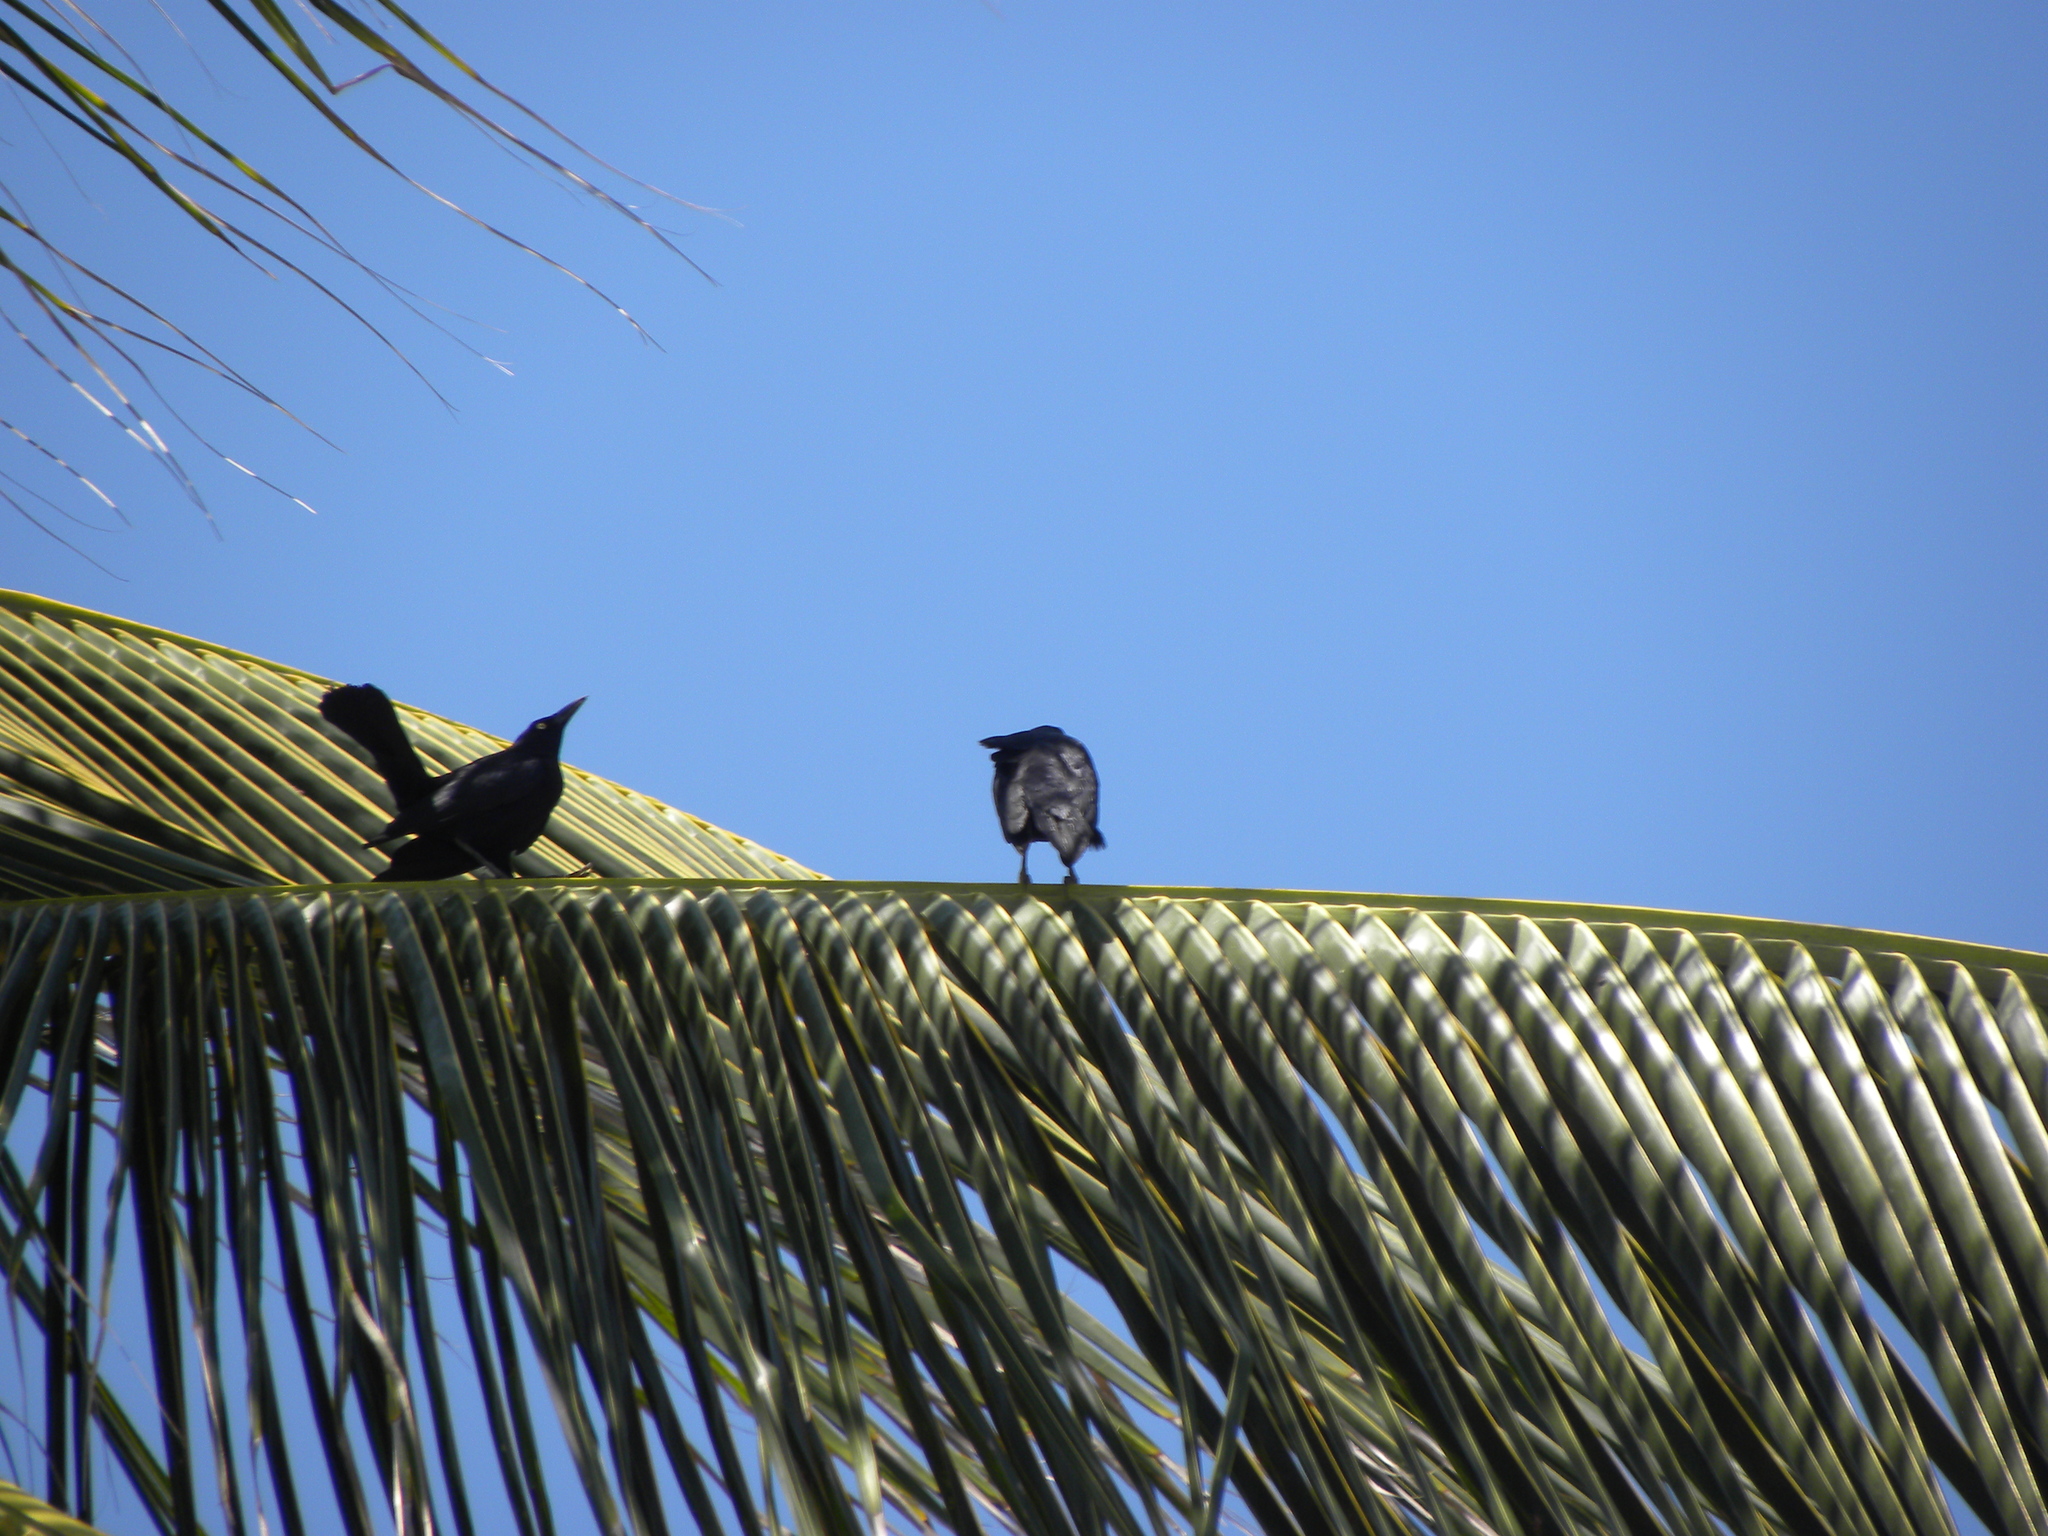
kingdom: Animalia
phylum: Chordata
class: Aves
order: Passeriformes
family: Icteridae
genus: Quiscalus
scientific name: Quiscalus mexicanus
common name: Great-tailed grackle
